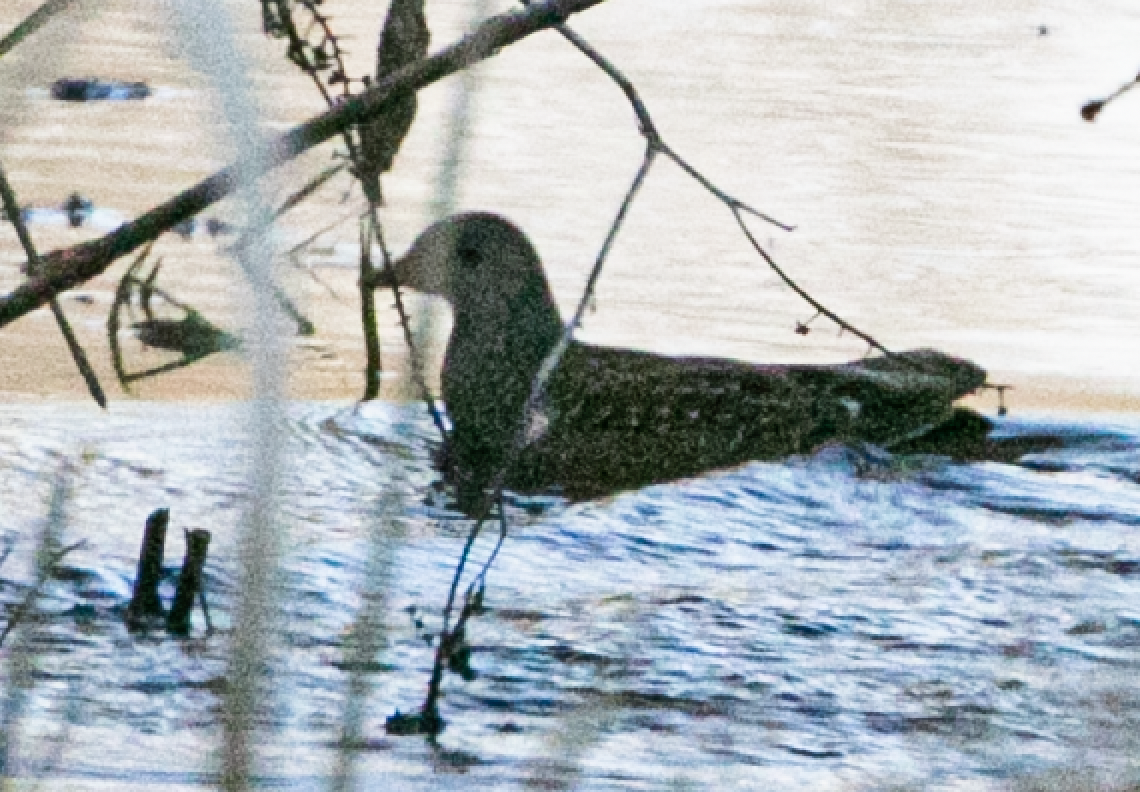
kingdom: Animalia
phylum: Chordata
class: Aves
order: Gruiformes
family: Rallidae
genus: Porzana
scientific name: Porzana porzana
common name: Spotted crake
